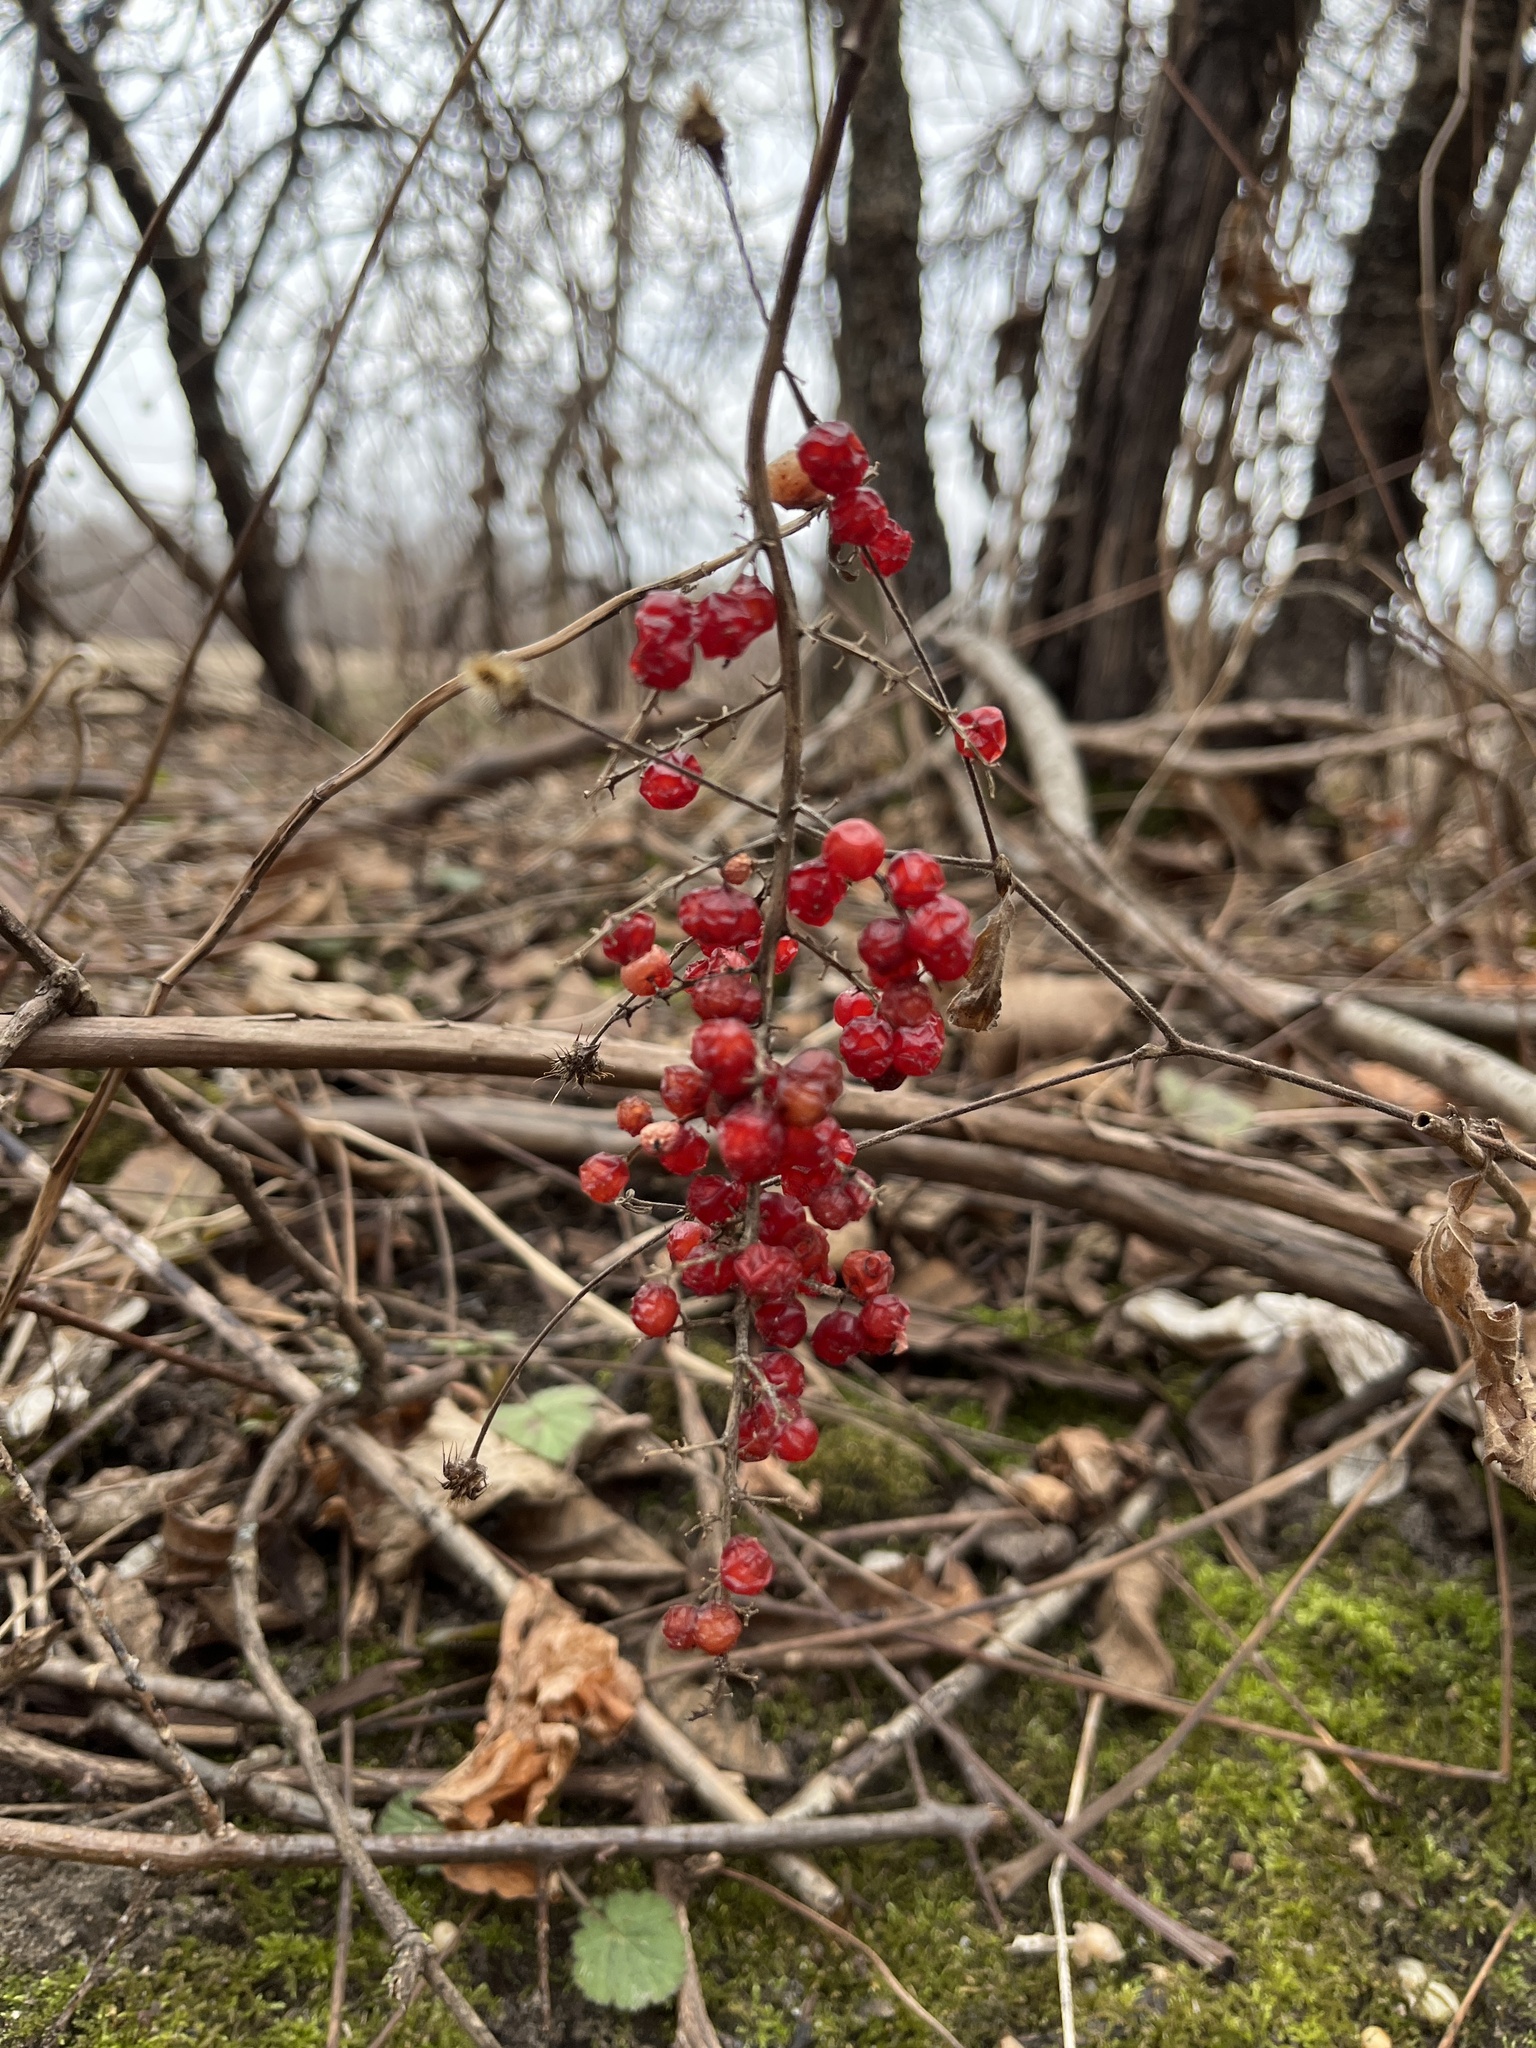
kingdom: Plantae
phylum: Tracheophyta
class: Liliopsida
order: Asparagales
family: Asparagaceae
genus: Maianthemum
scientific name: Maianthemum racemosum
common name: False spikenard
